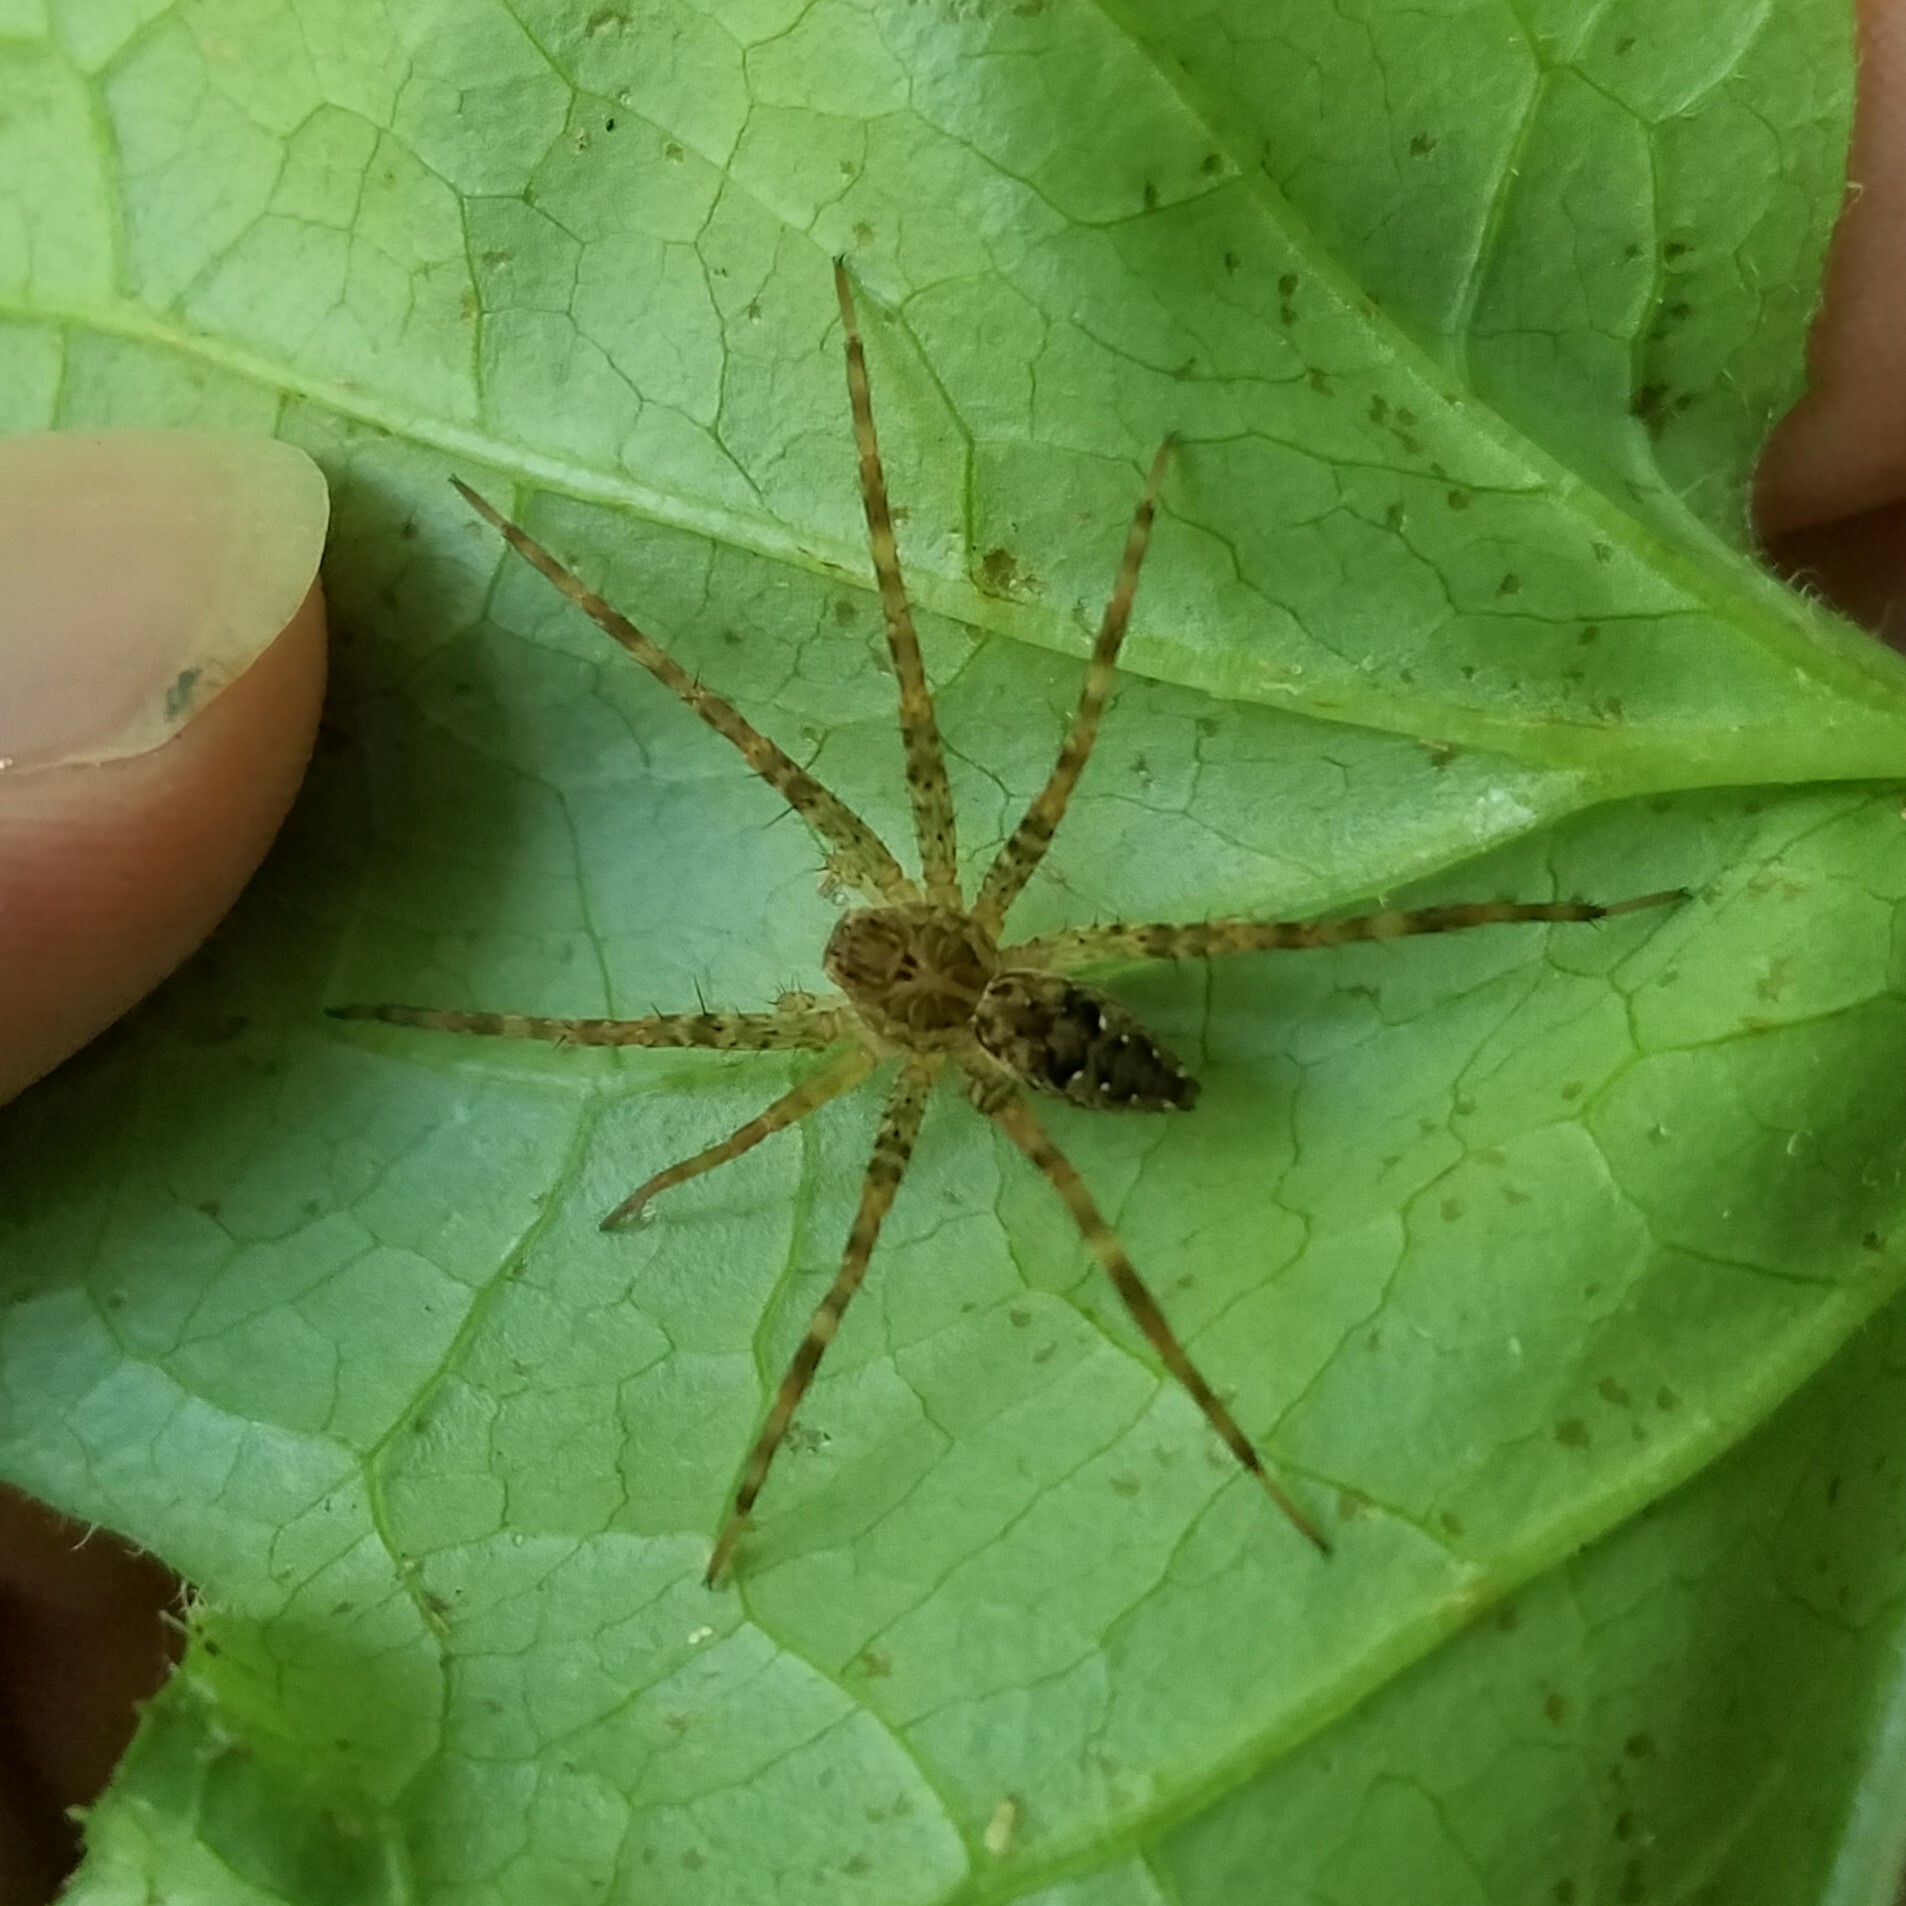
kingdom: Animalia
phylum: Arthropoda
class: Arachnida
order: Araneae
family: Pisauridae
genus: Dolomedes
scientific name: Dolomedes vittatus
